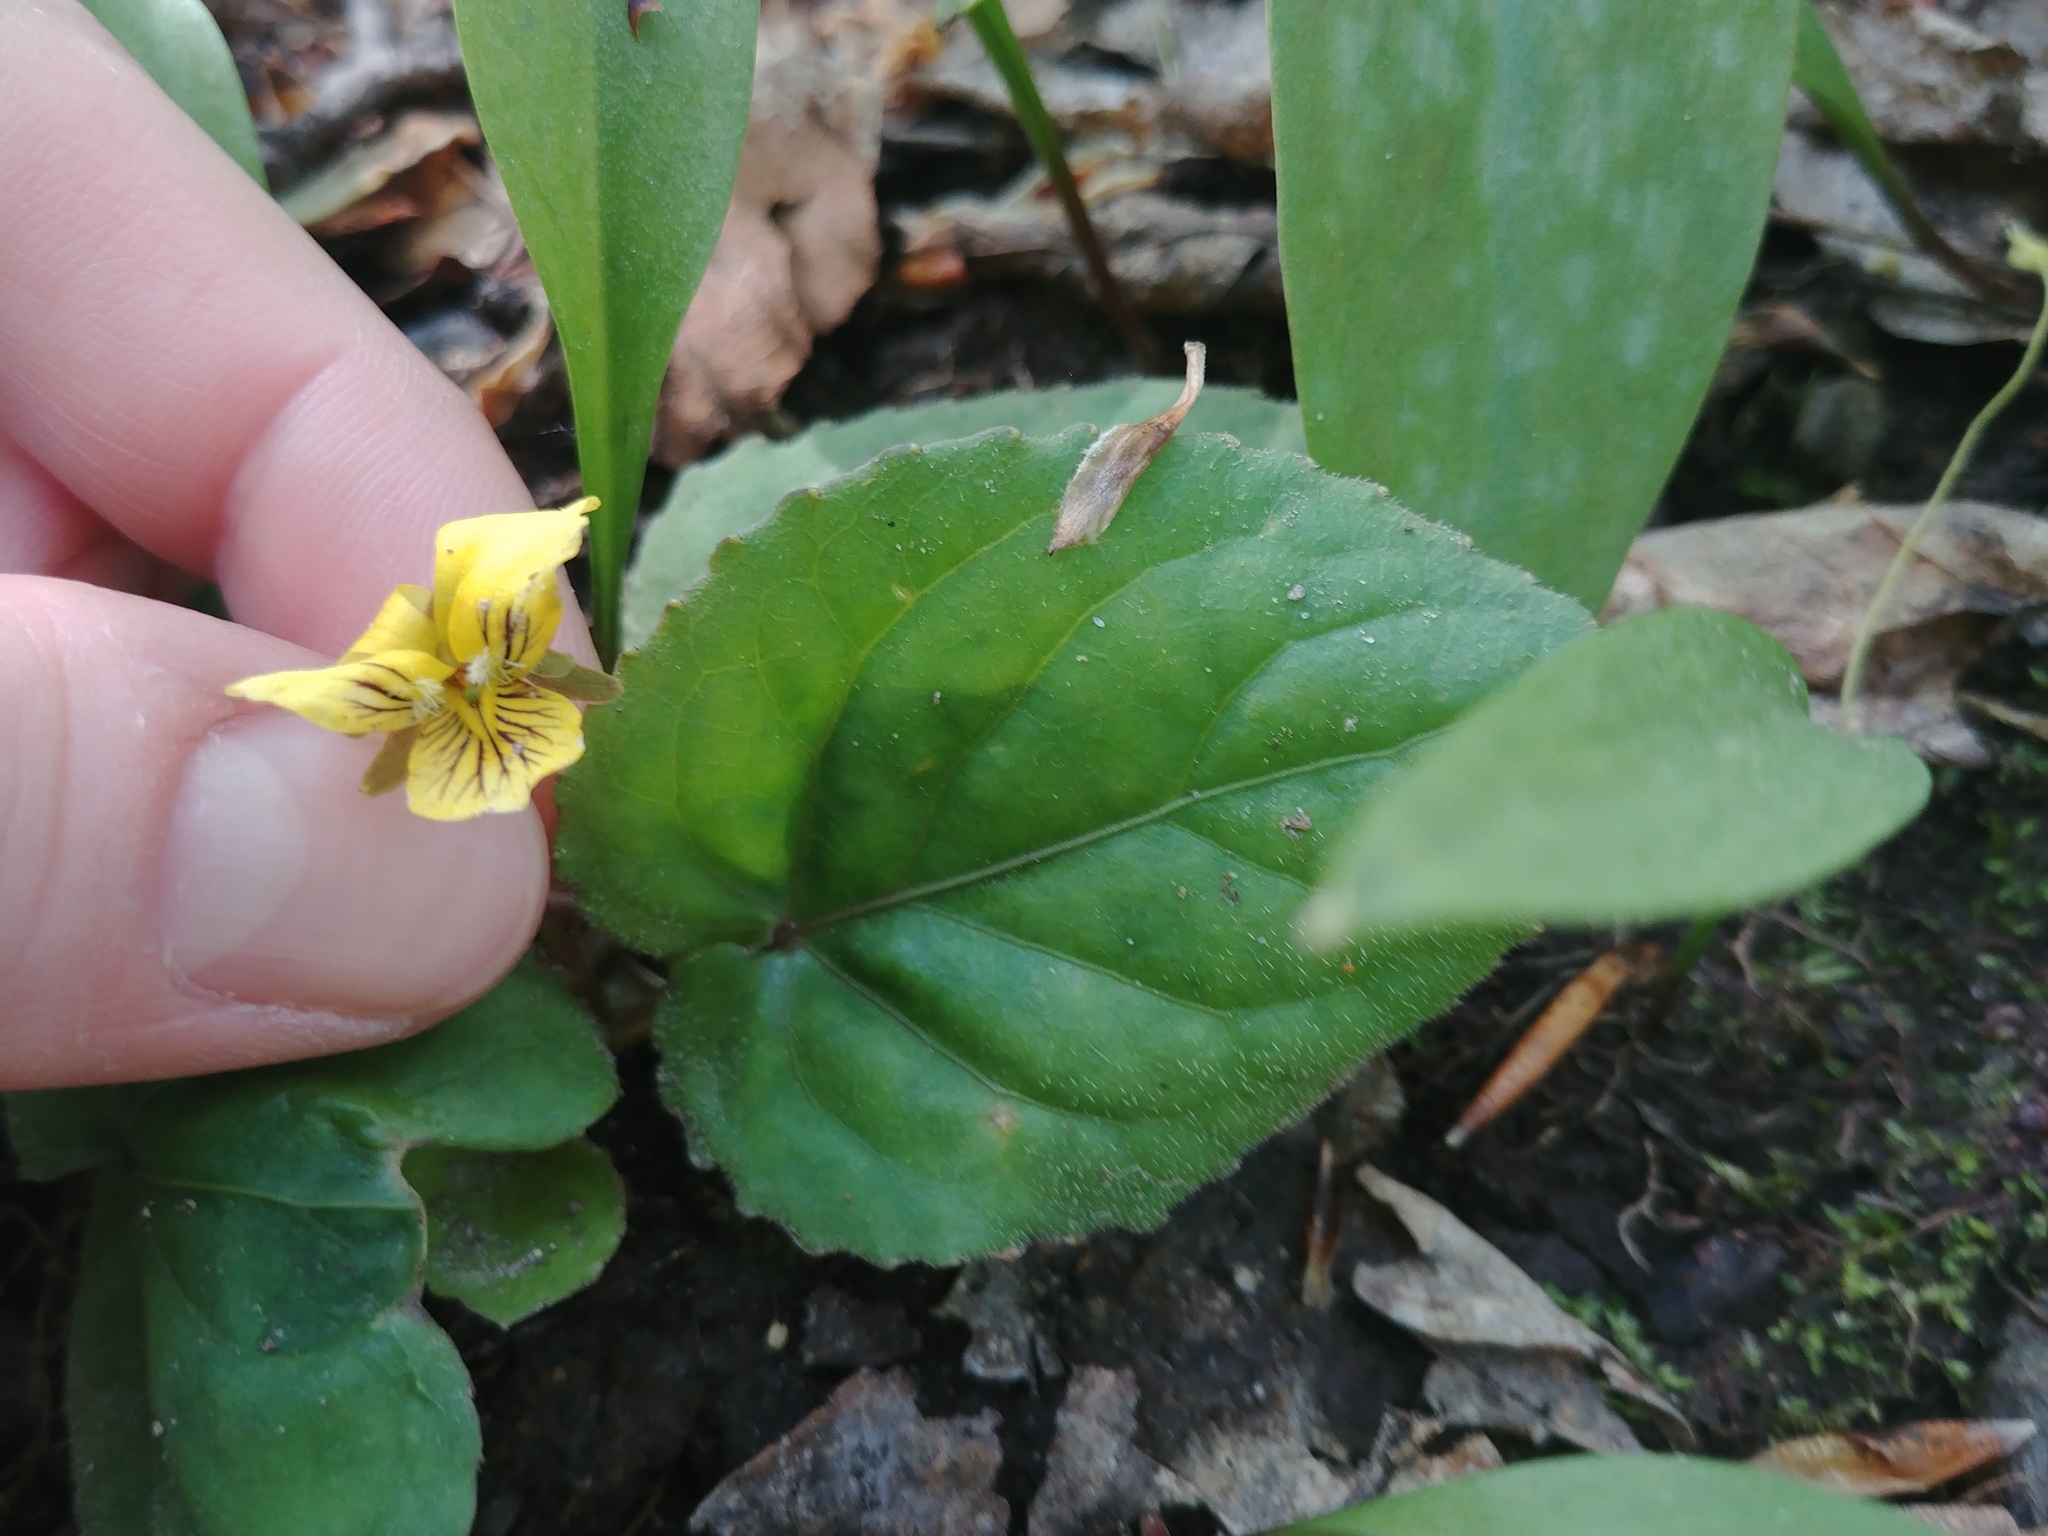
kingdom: Plantae
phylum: Tracheophyta
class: Magnoliopsida
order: Malpighiales
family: Violaceae
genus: Viola
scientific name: Viola rotundifolia
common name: Early yellow violet
